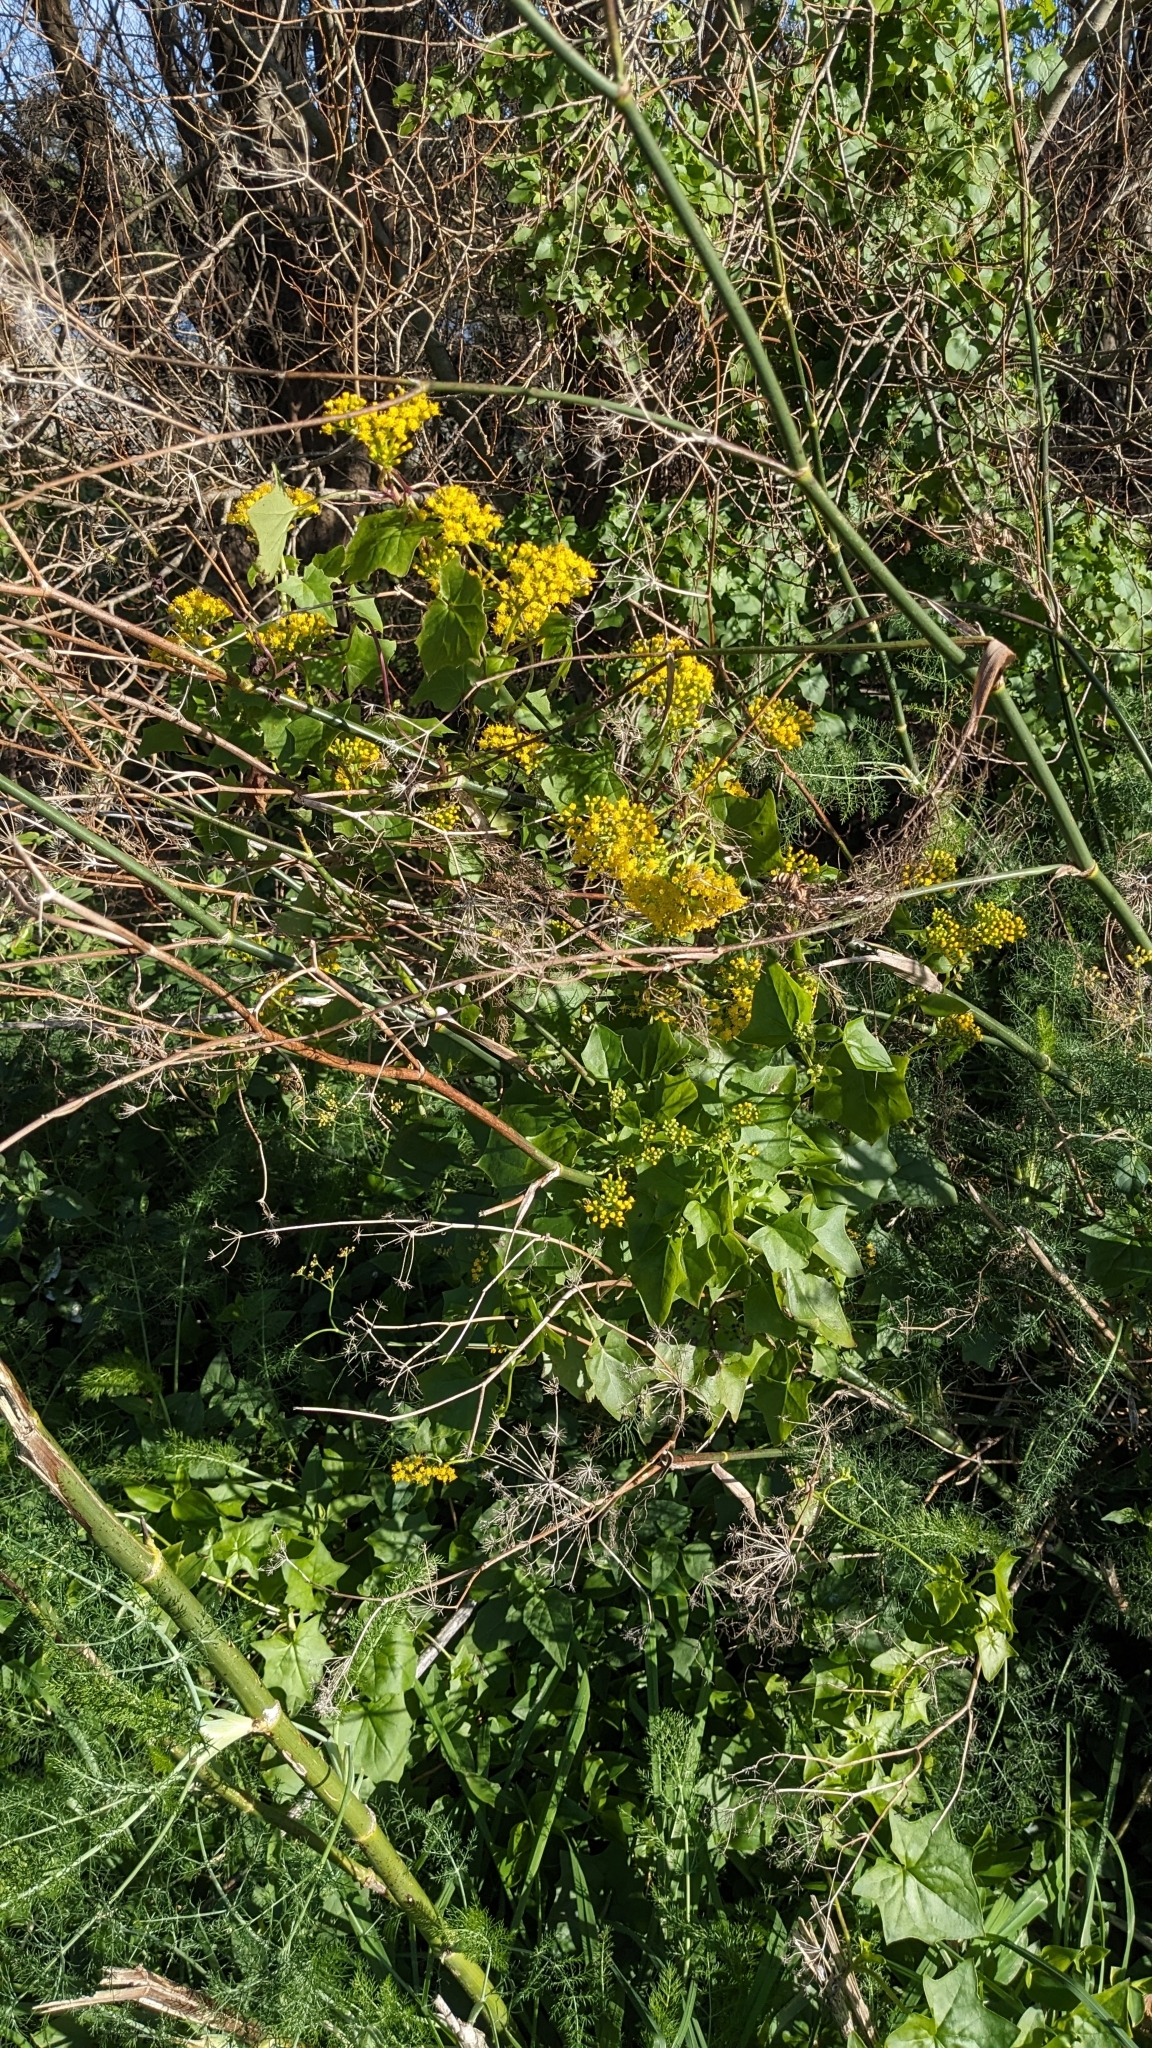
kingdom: Plantae
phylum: Tracheophyta
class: Magnoliopsida
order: Asterales
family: Asteraceae
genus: Delairea
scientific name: Delairea odorata
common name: Cape-ivy
